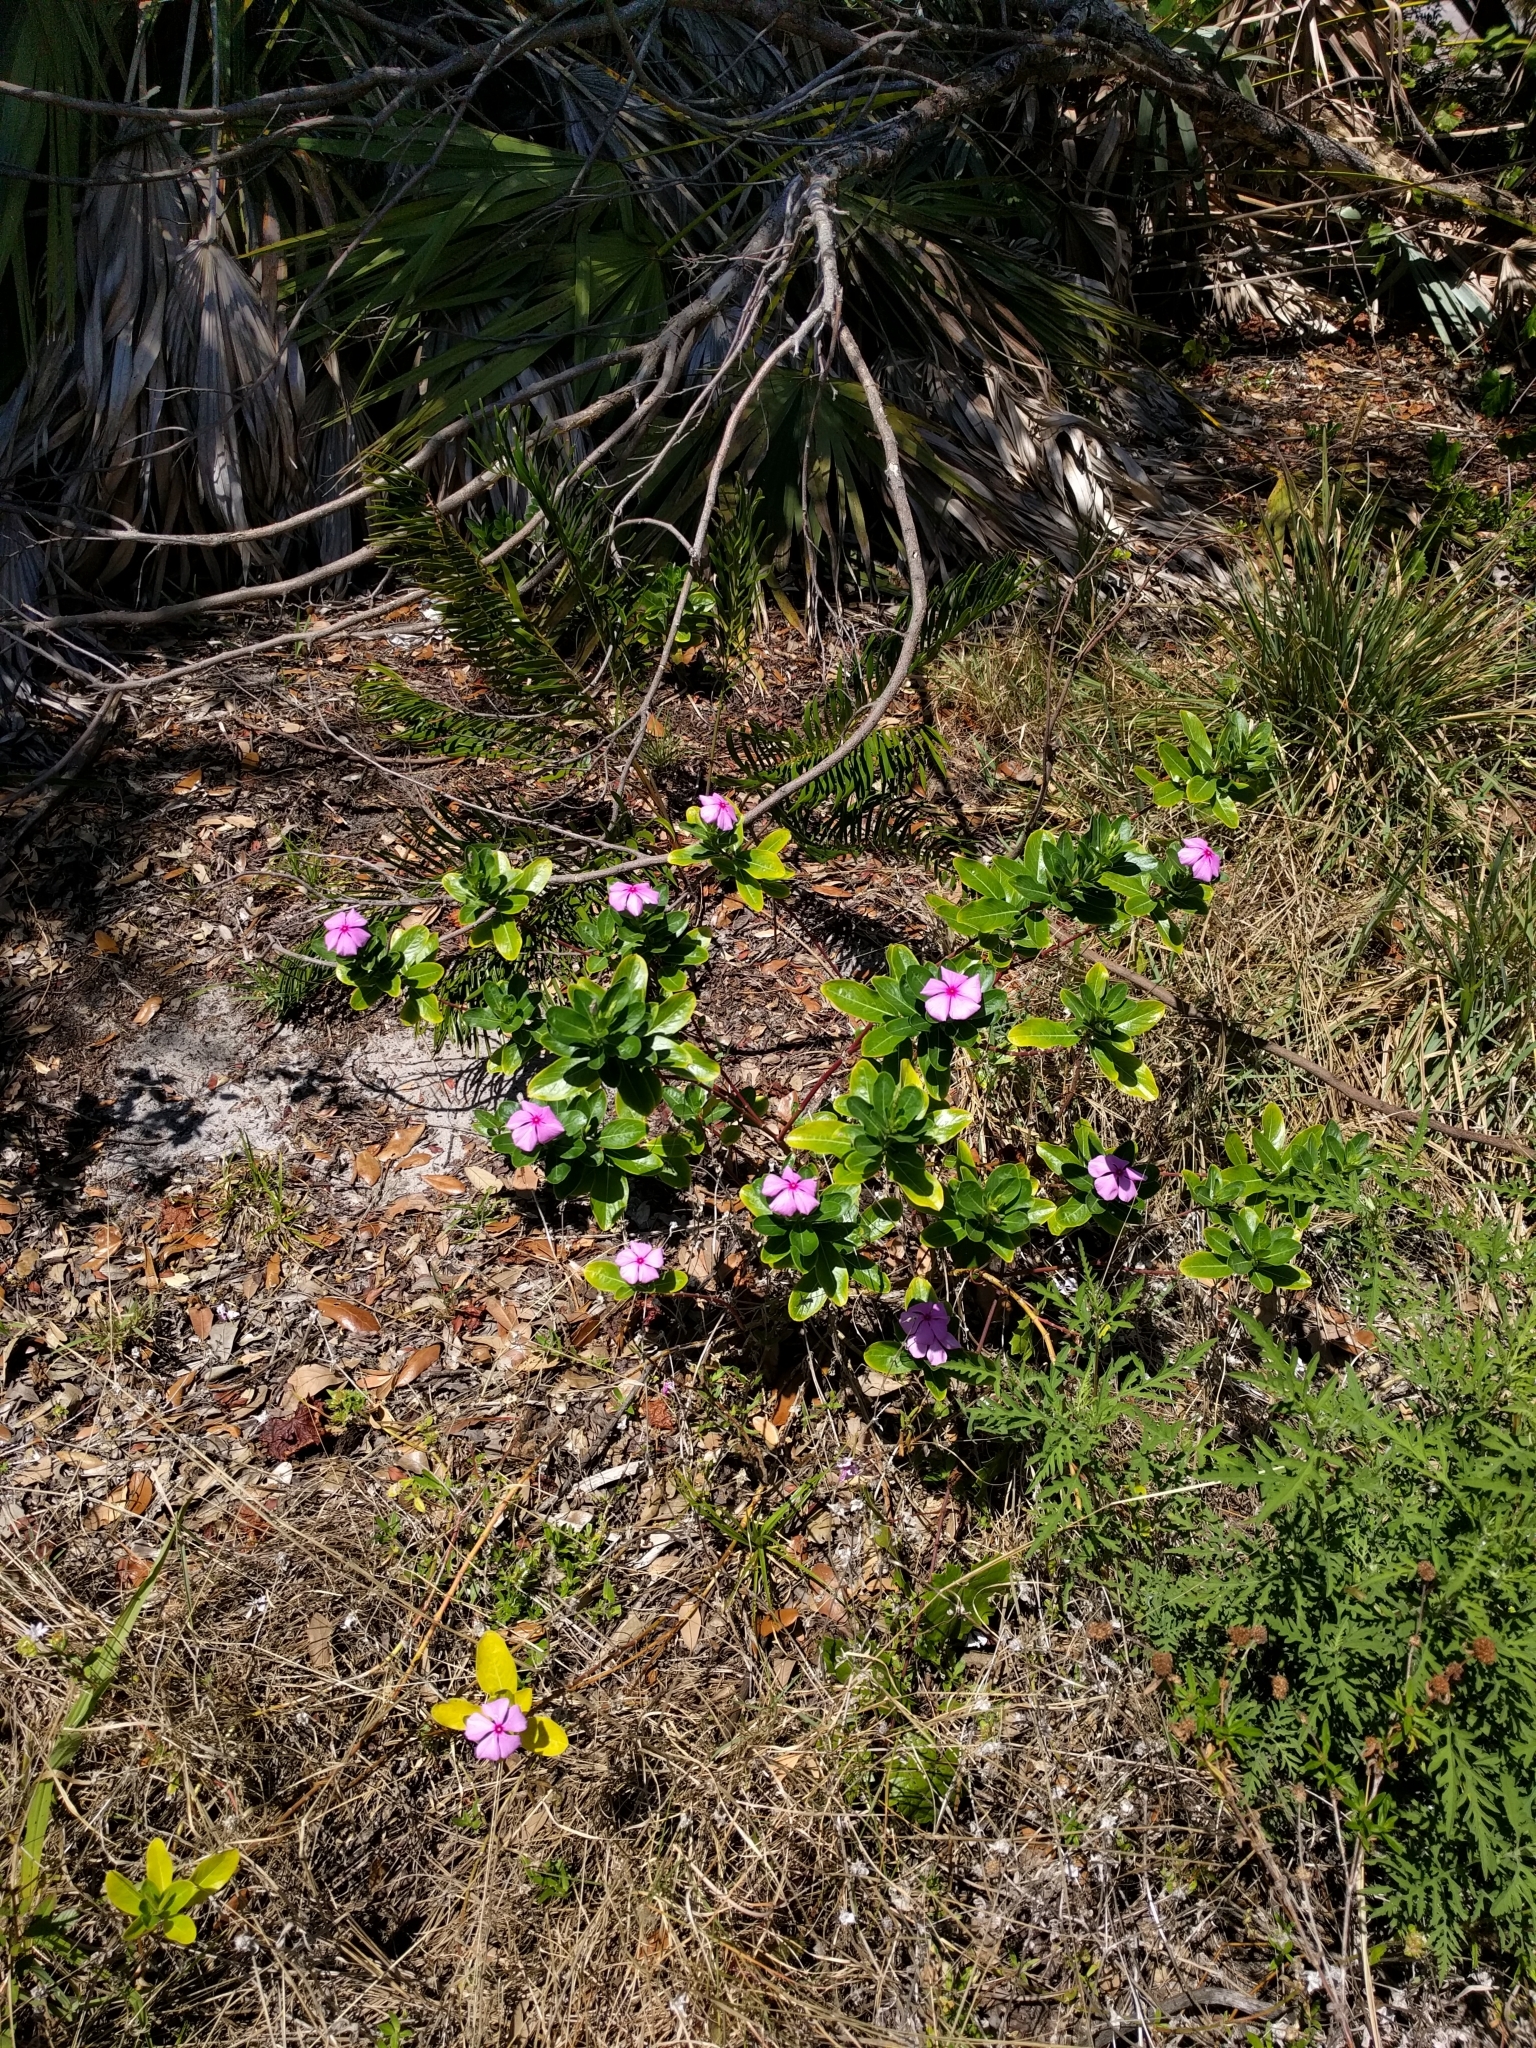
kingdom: Plantae
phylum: Tracheophyta
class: Magnoliopsida
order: Gentianales
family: Apocynaceae
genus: Catharanthus
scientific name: Catharanthus roseus
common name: Madagascar periwinkle
